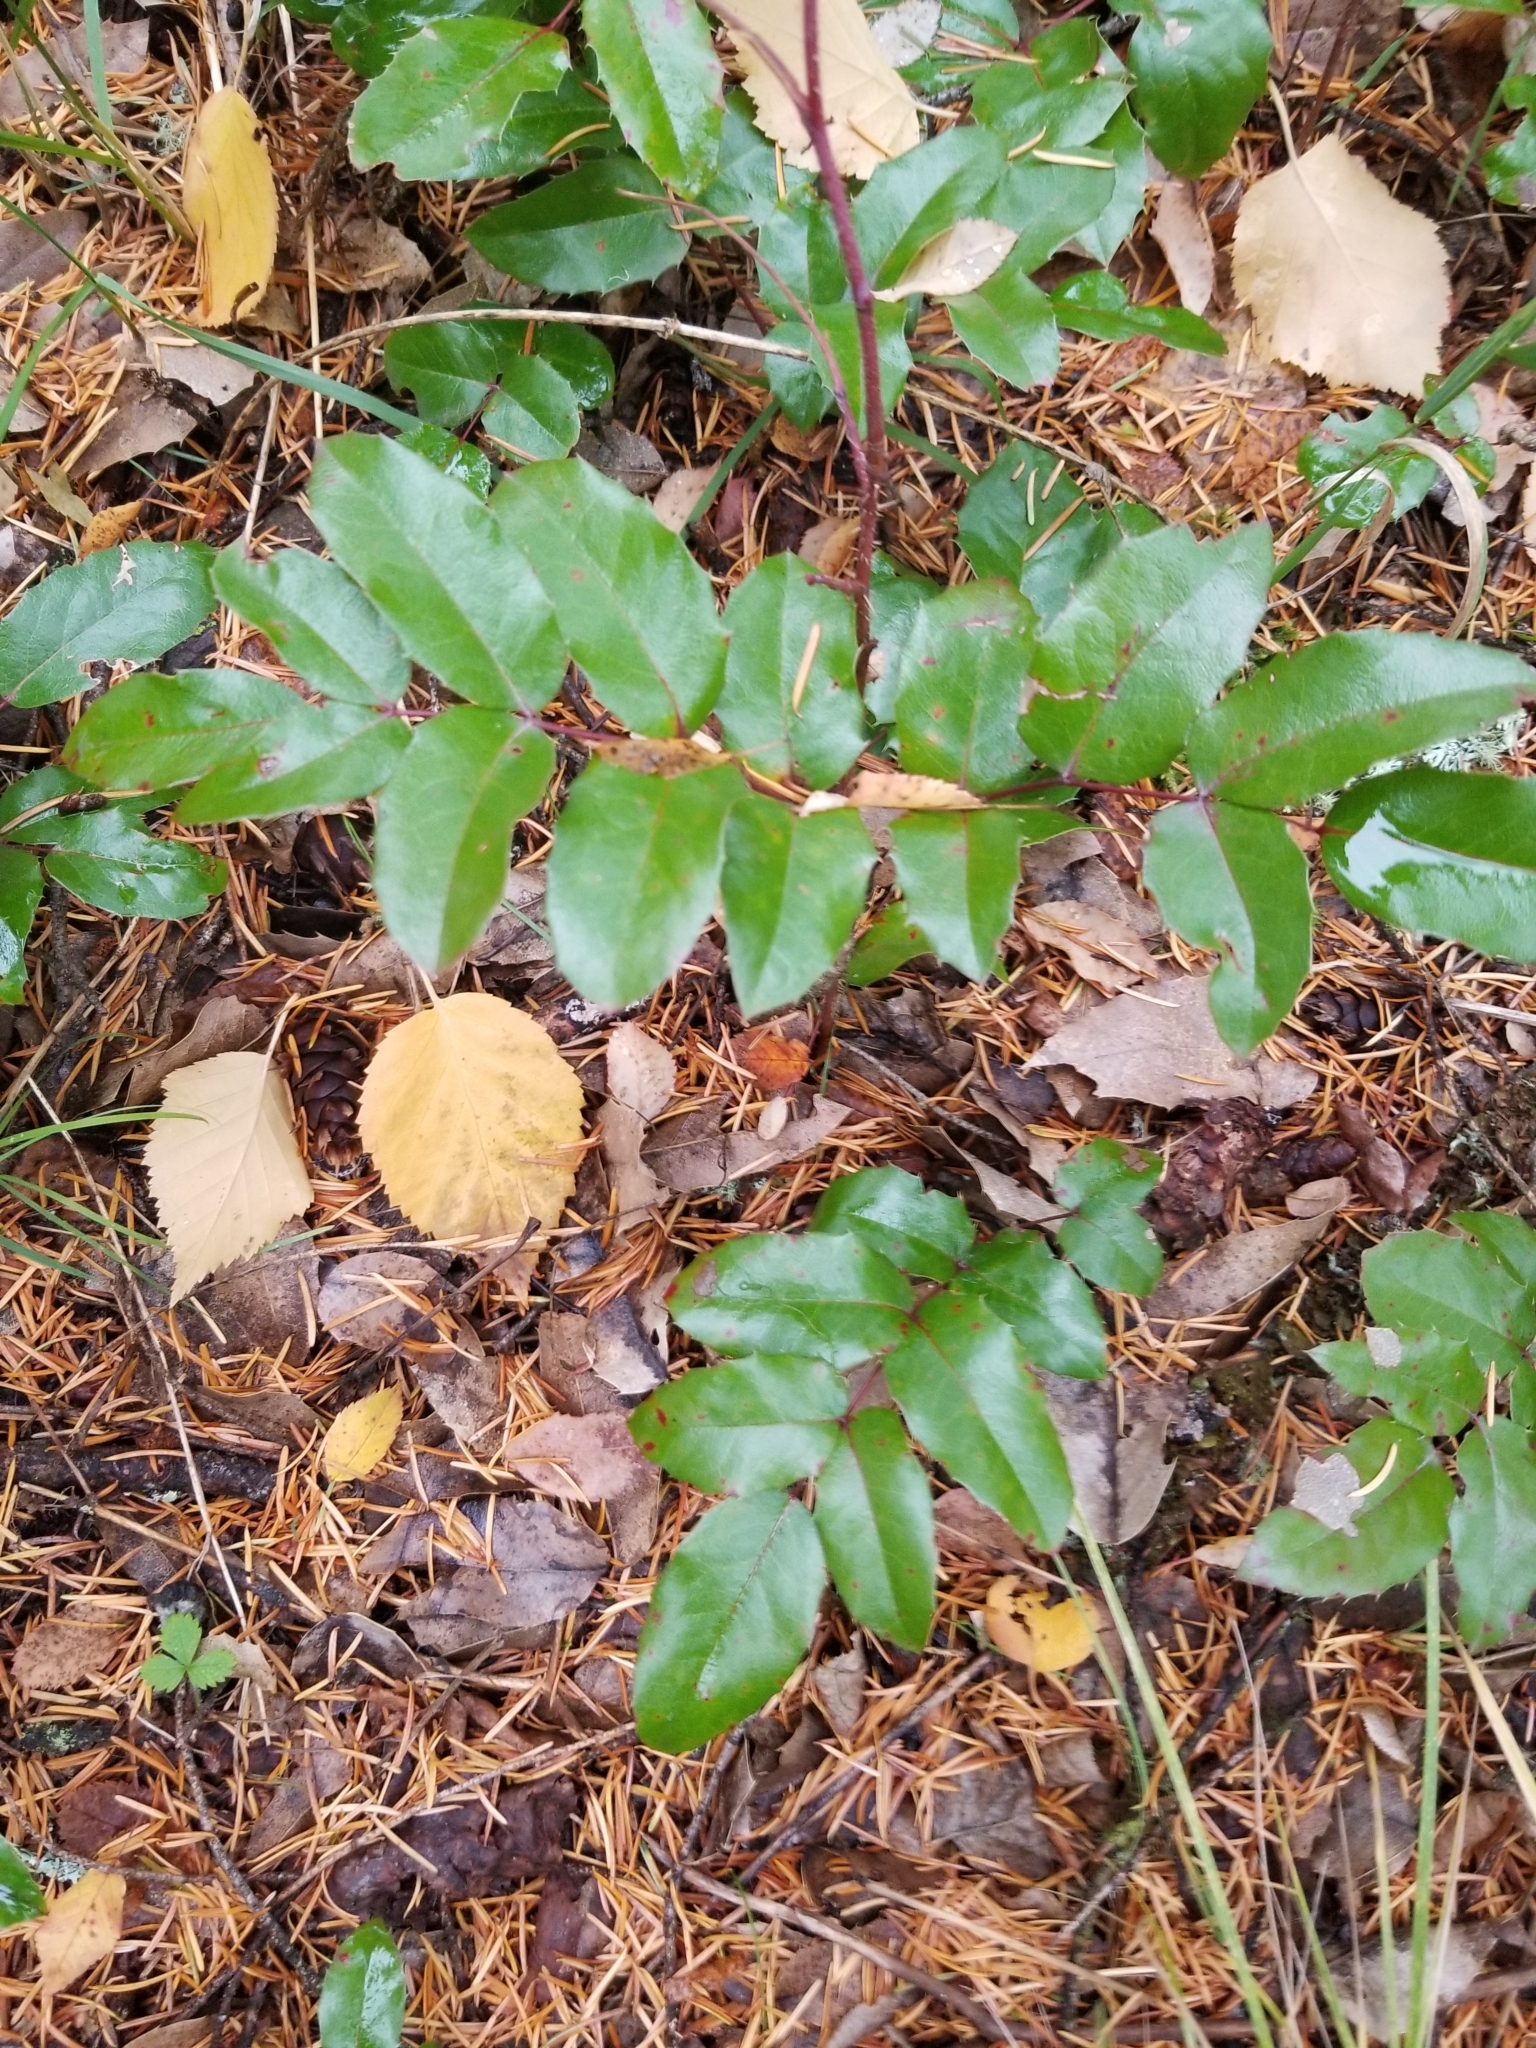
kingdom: Plantae
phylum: Tracheophyta
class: Magnoliopsida
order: Ranunculales
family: Berberidaceae
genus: Mahonia
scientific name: Mahonia aquifolium
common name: Oregon-grape
